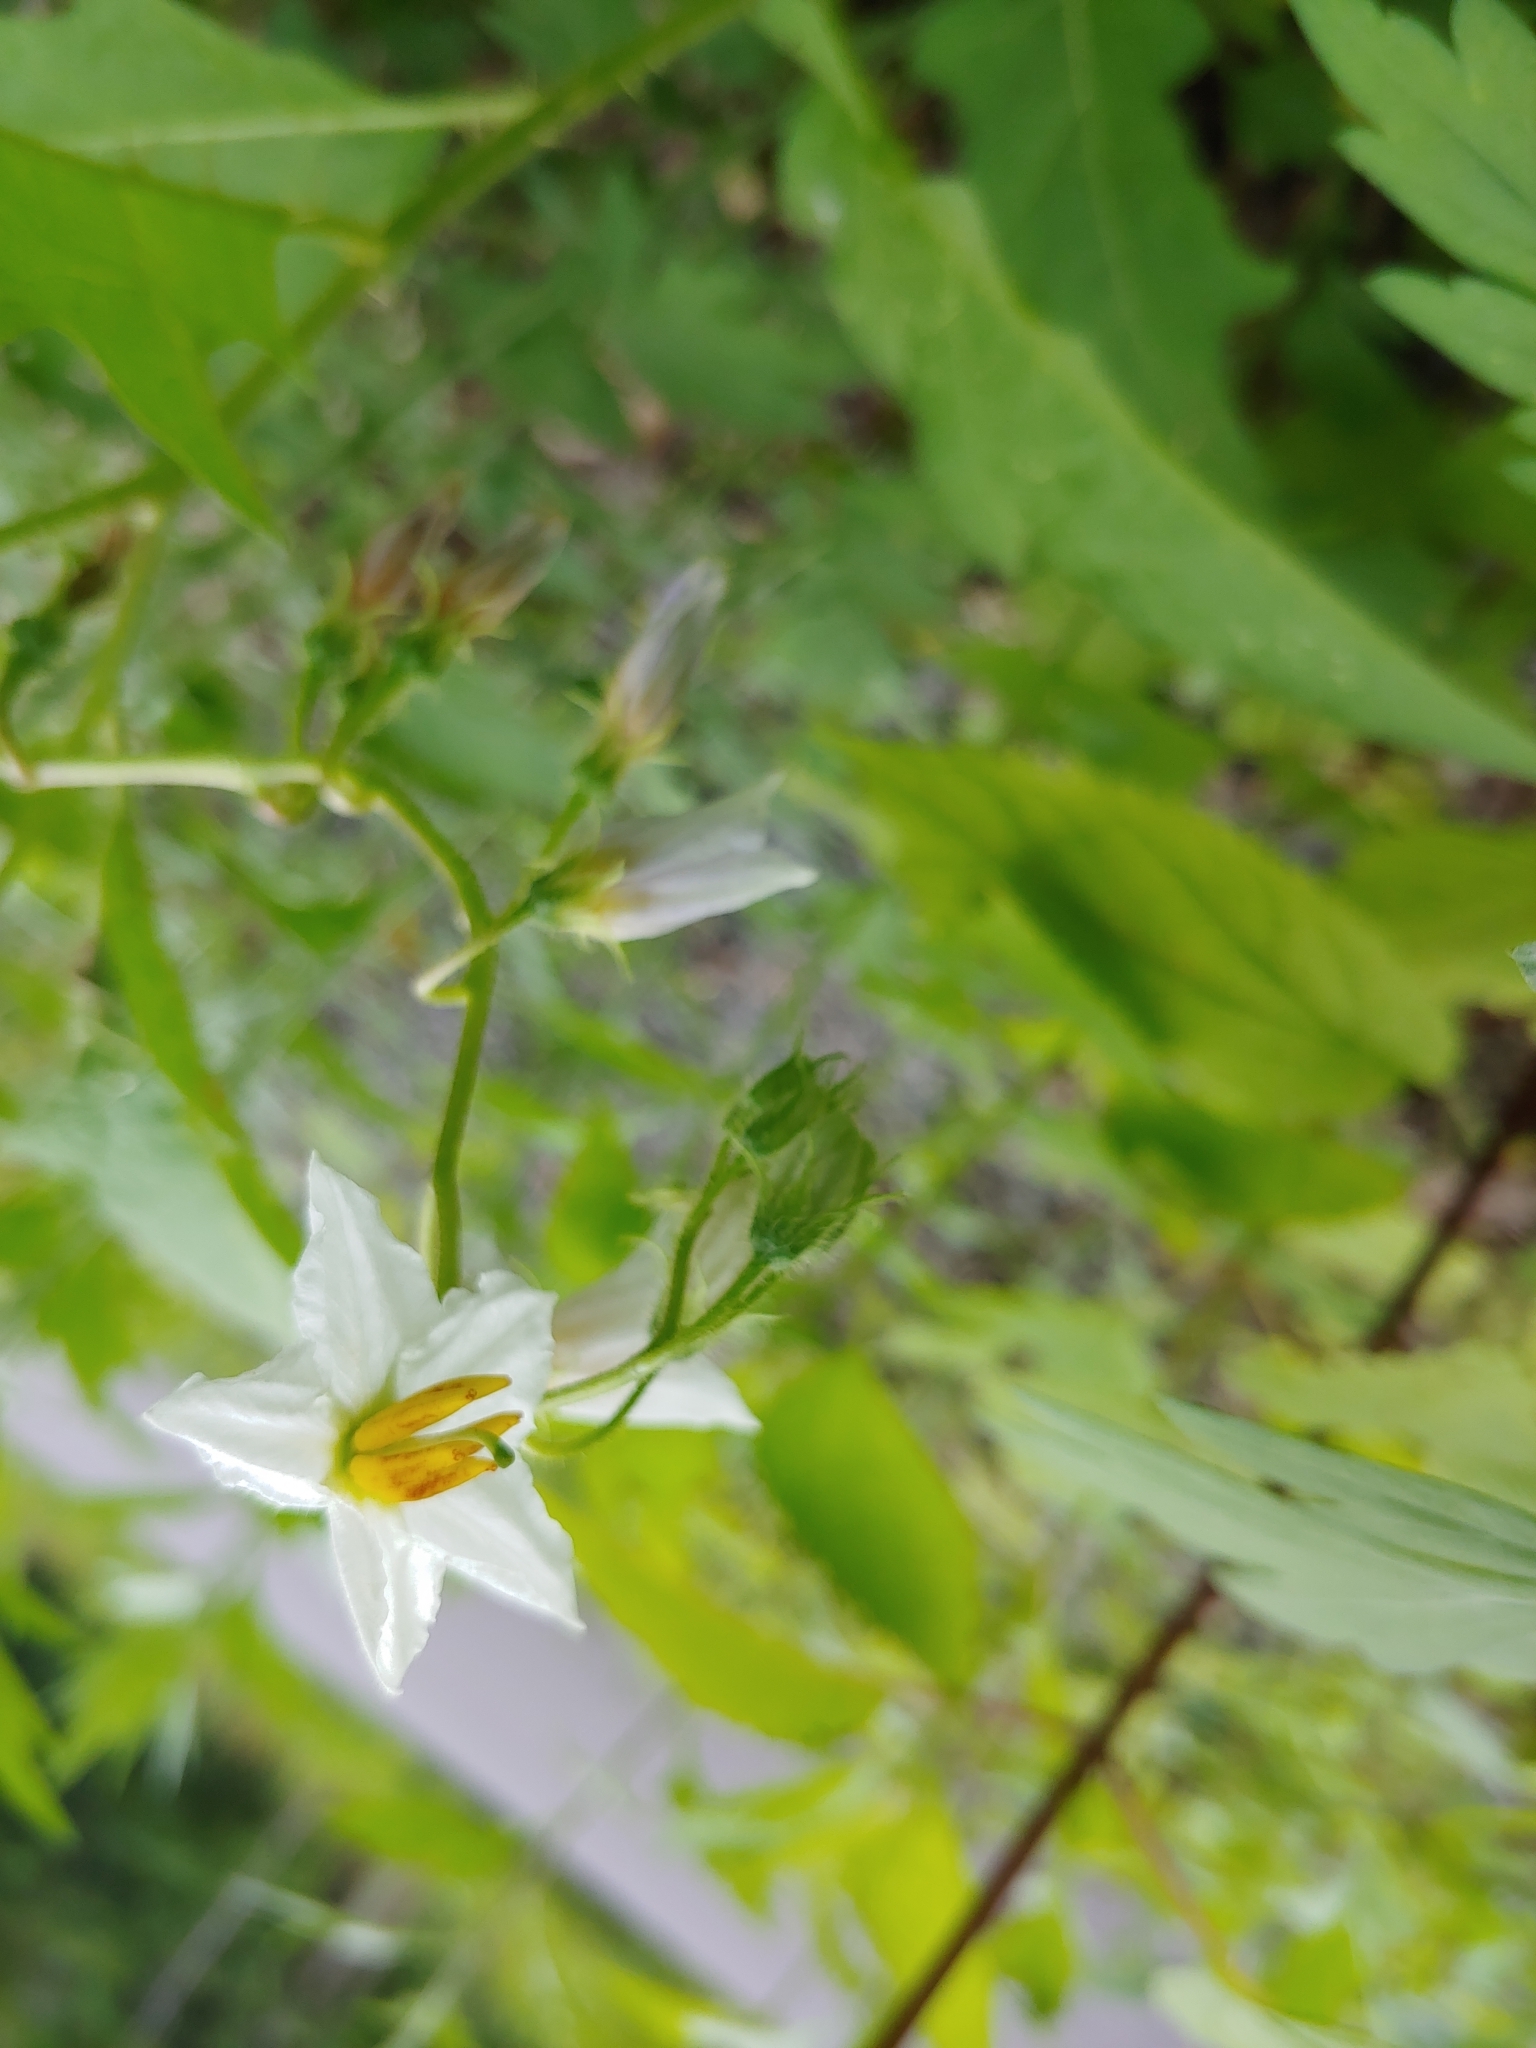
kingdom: Plantae
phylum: Tracheophyta
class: Magnoliopsida
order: Solanales
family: Solanaceae
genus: Solanum
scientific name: Solanum carolinense
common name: Horse-nettle
